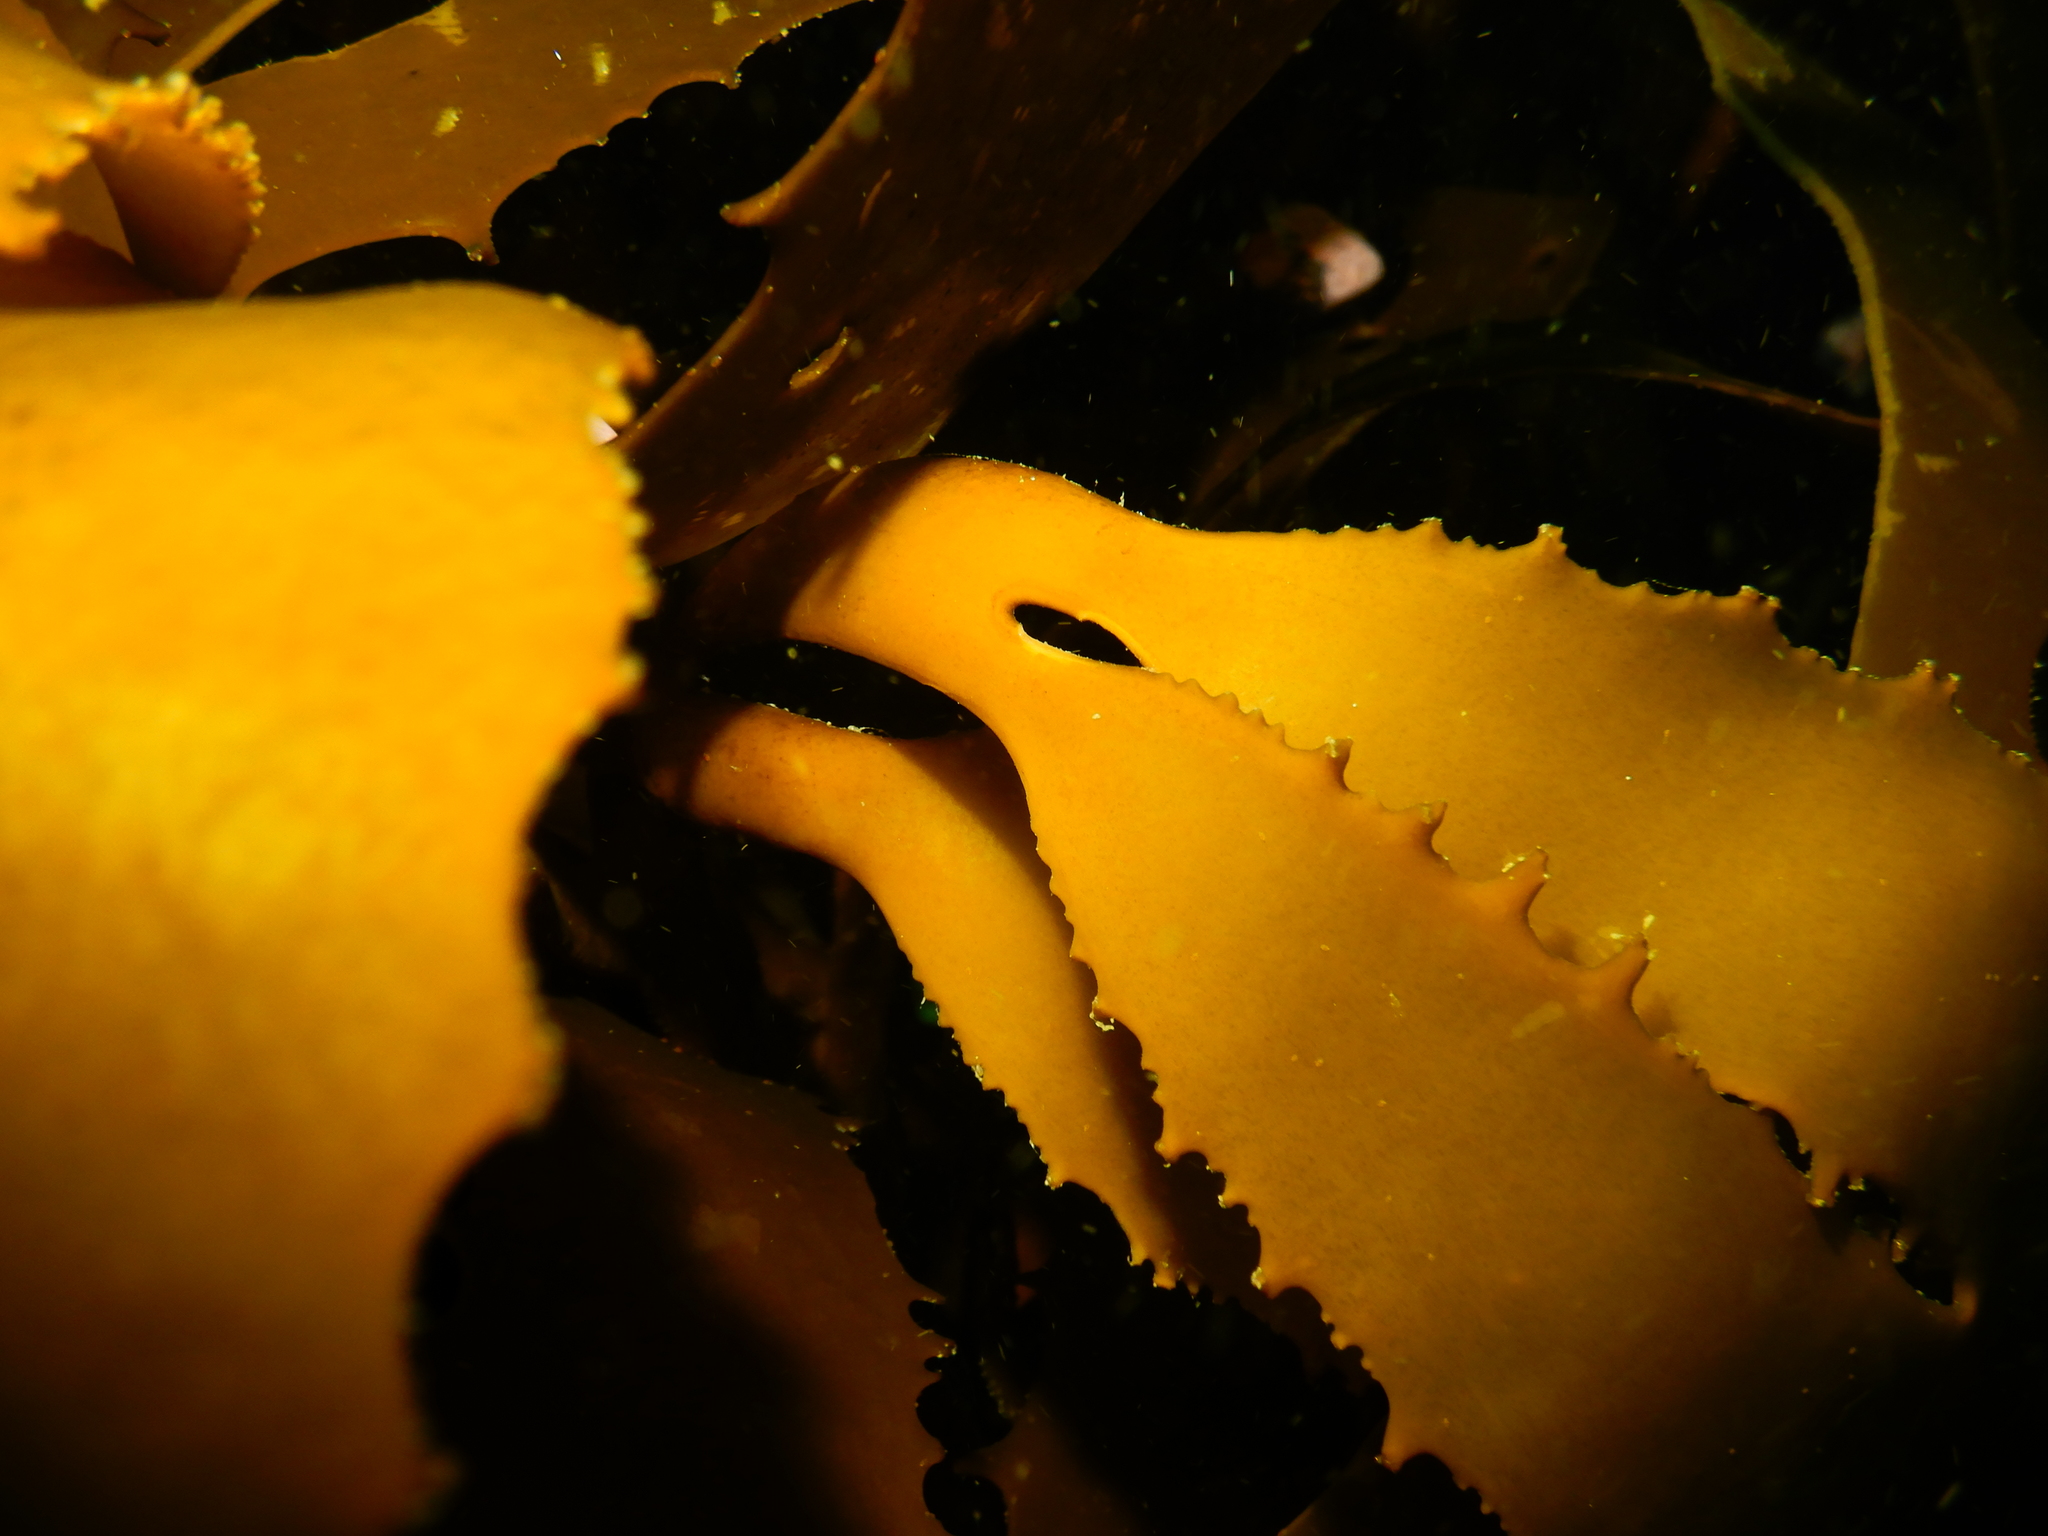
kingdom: Chromista
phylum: Ochrophyta
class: Phaeophyceae
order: Laminariales
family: Lessoniaceae
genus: Lessonia
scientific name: Lessonia trabeculata
